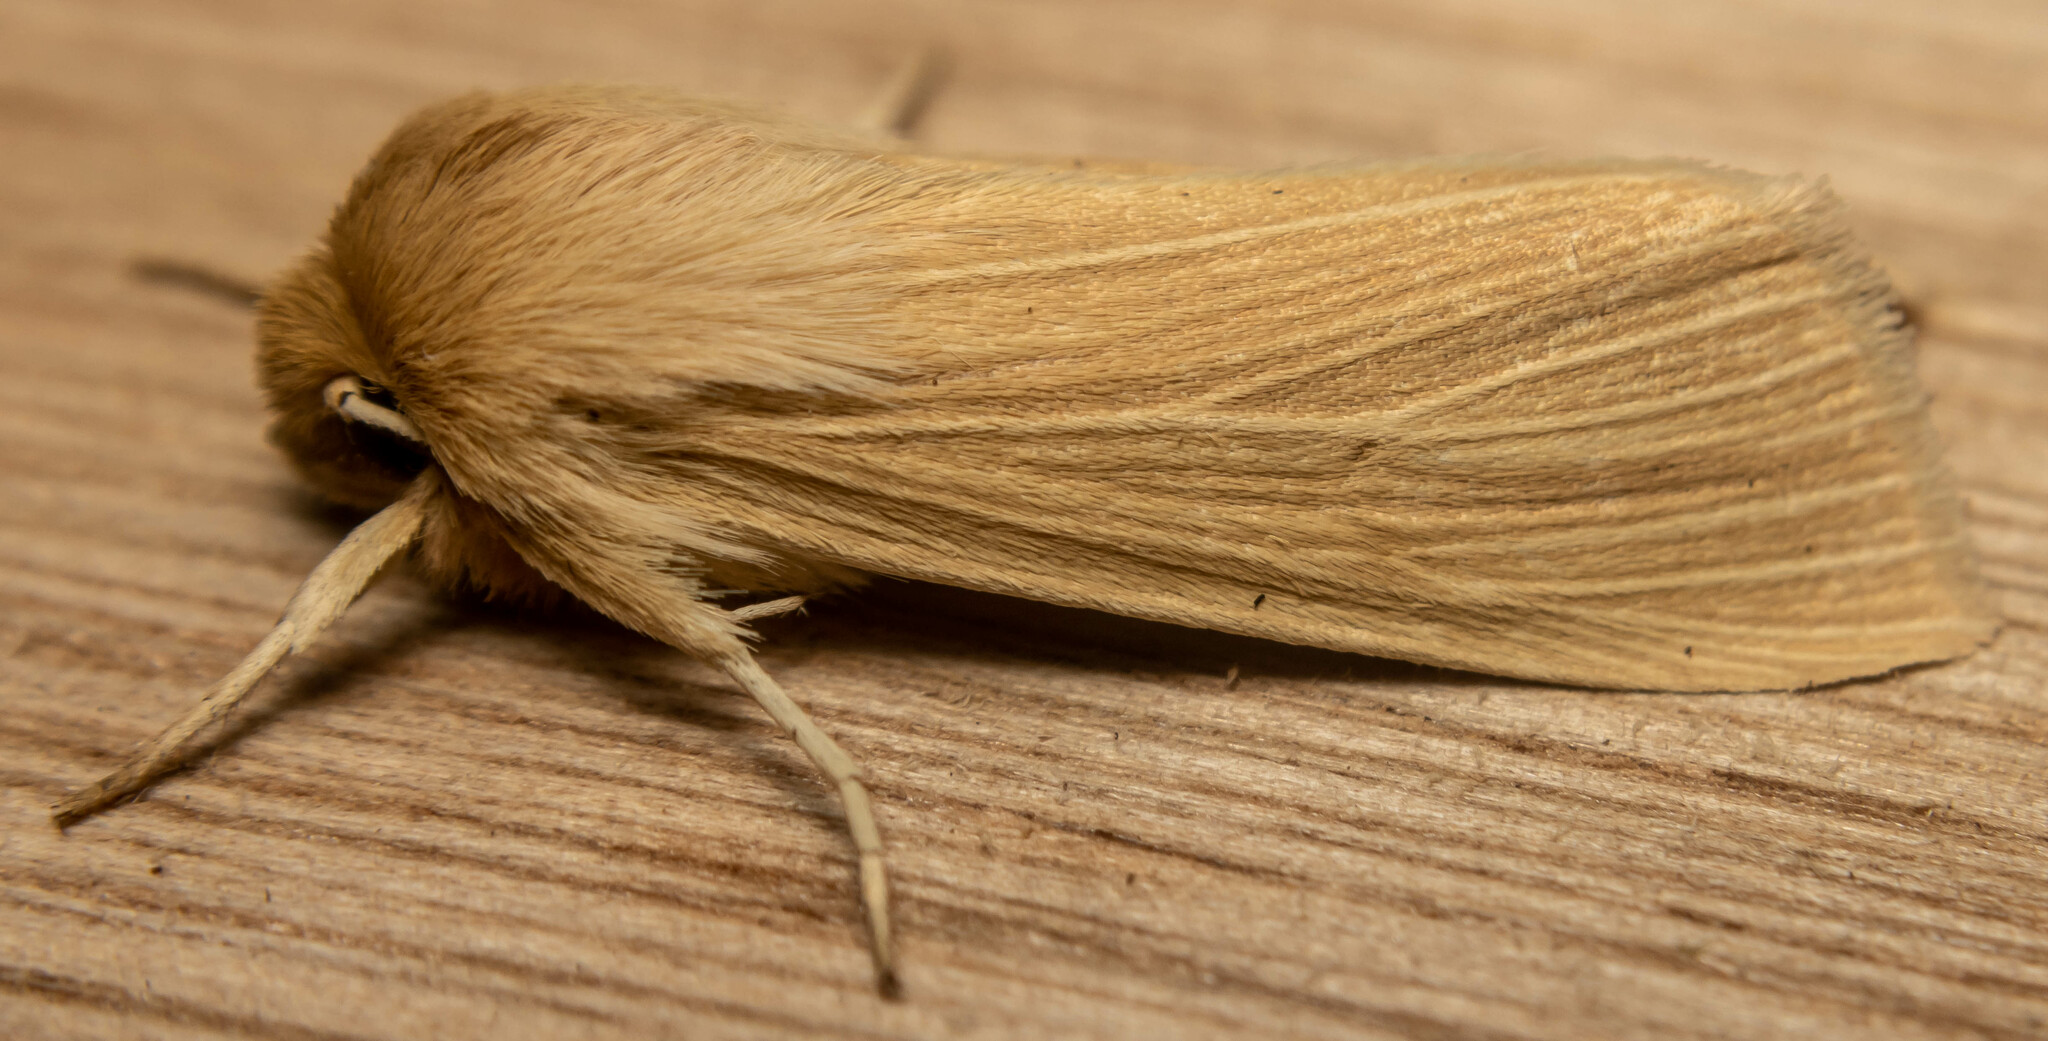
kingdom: Animalia
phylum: Arthropoda
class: Insecta
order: Lepidoptera
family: Noctuidae
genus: Mythimna
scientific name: Mythimna pallens
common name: Common wainscot
